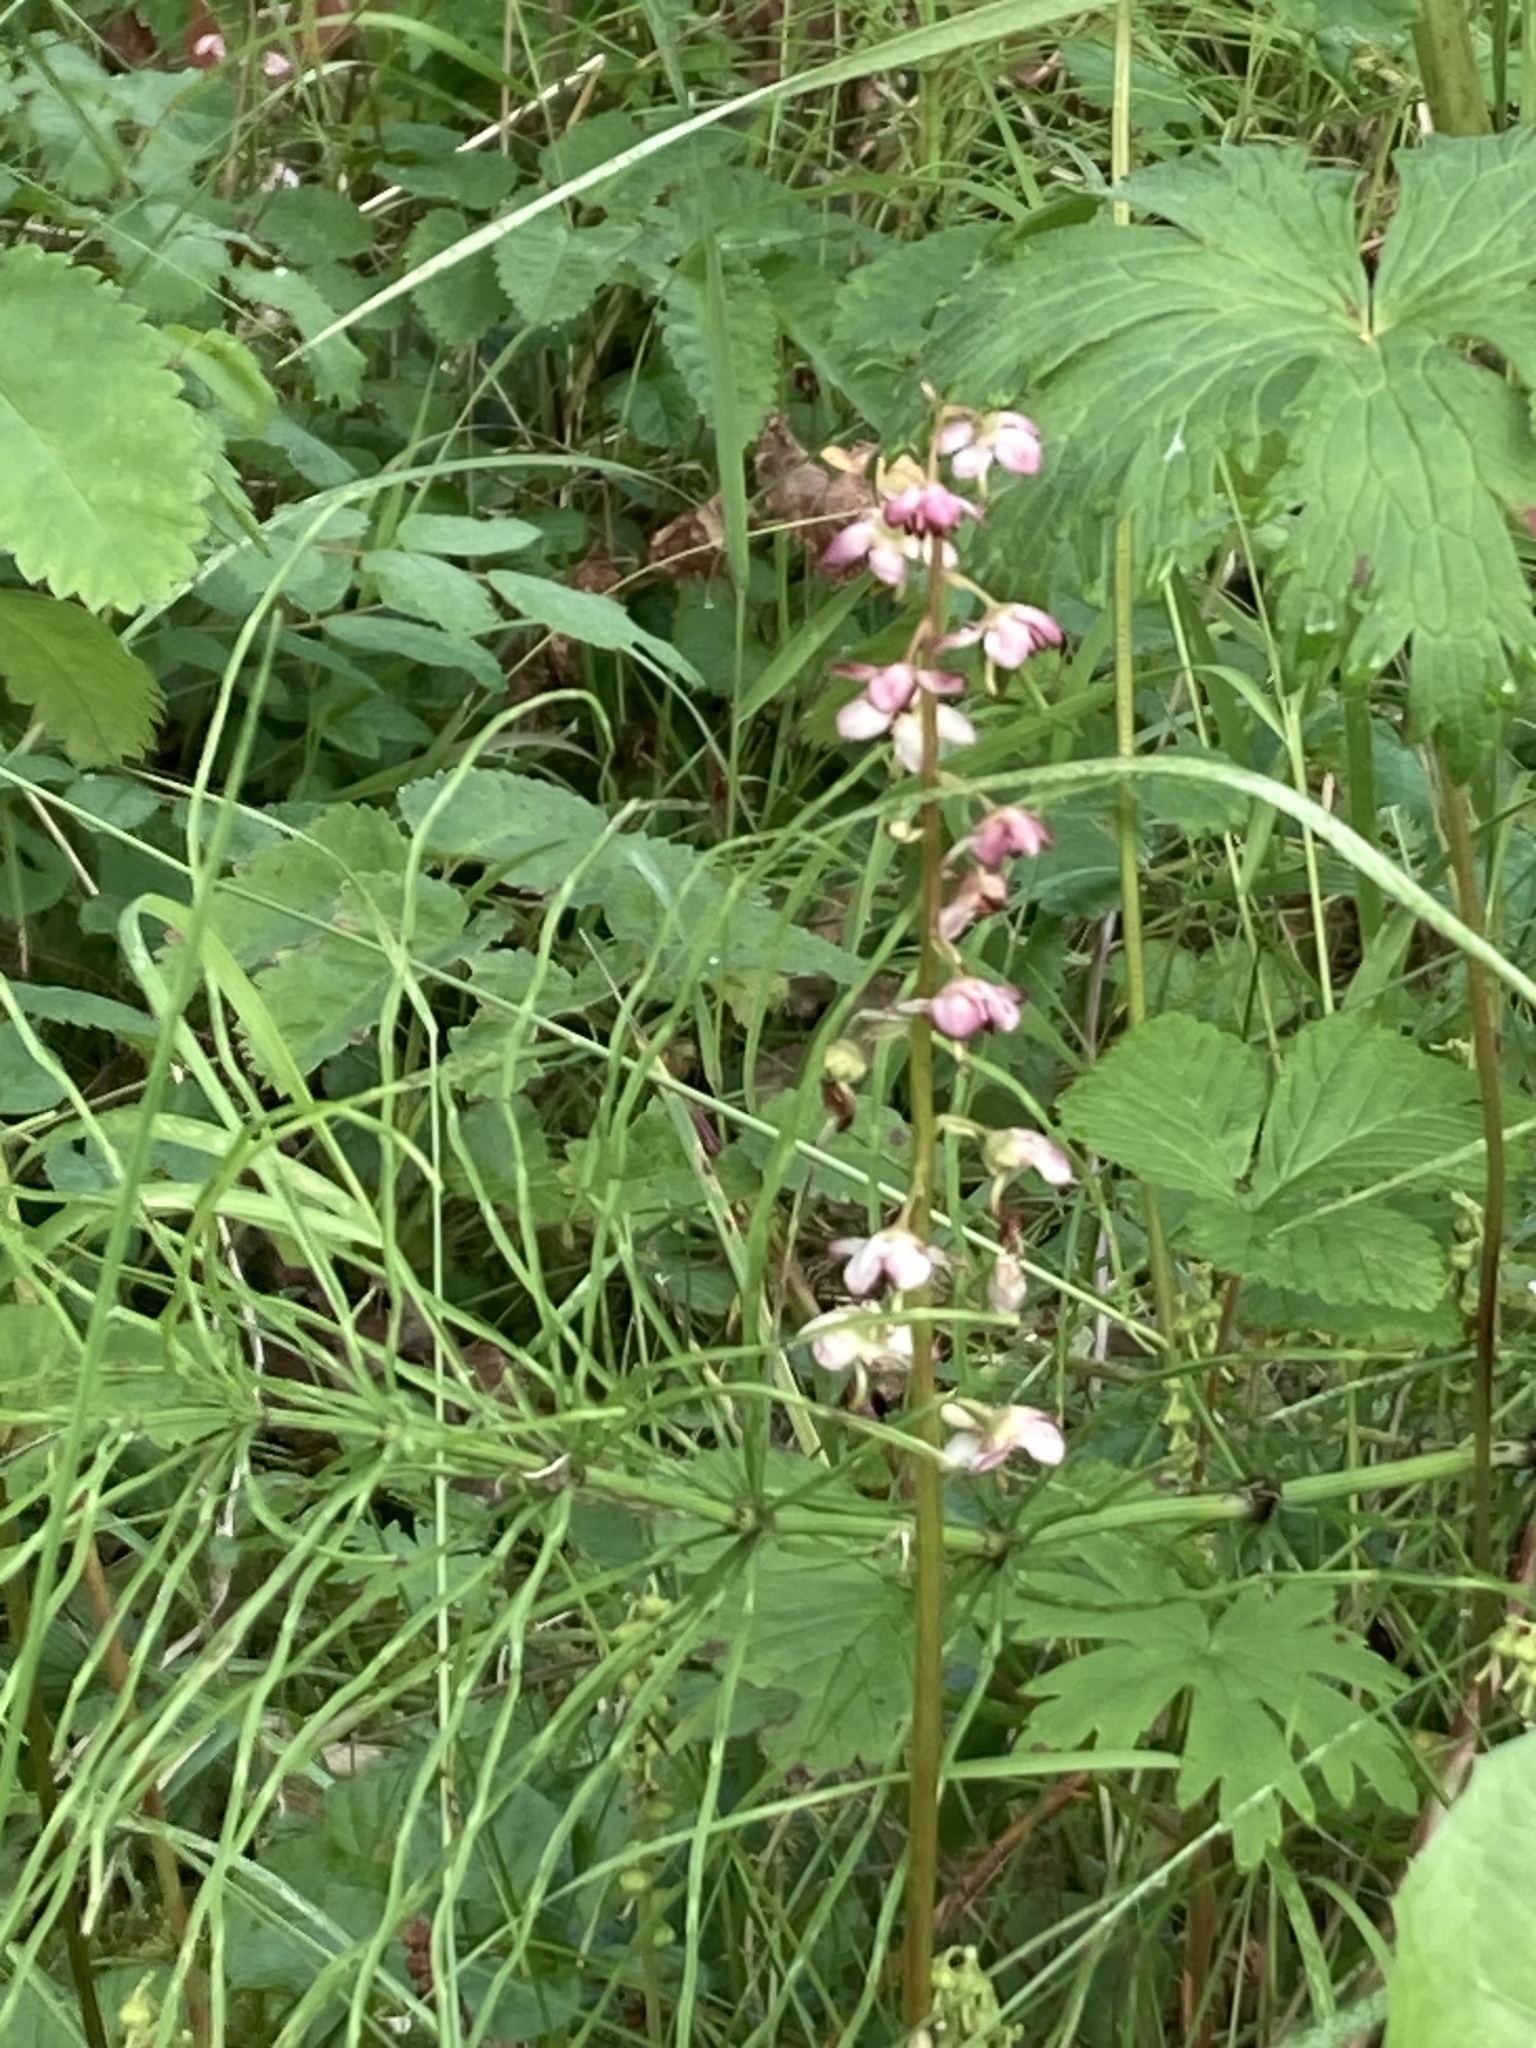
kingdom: Plantae
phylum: Tracheophyta
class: Magnoliopsida
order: Ericales
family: Ericaceae
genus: Pyrola
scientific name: Pyrola asarifolia
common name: Bog wintergreen
